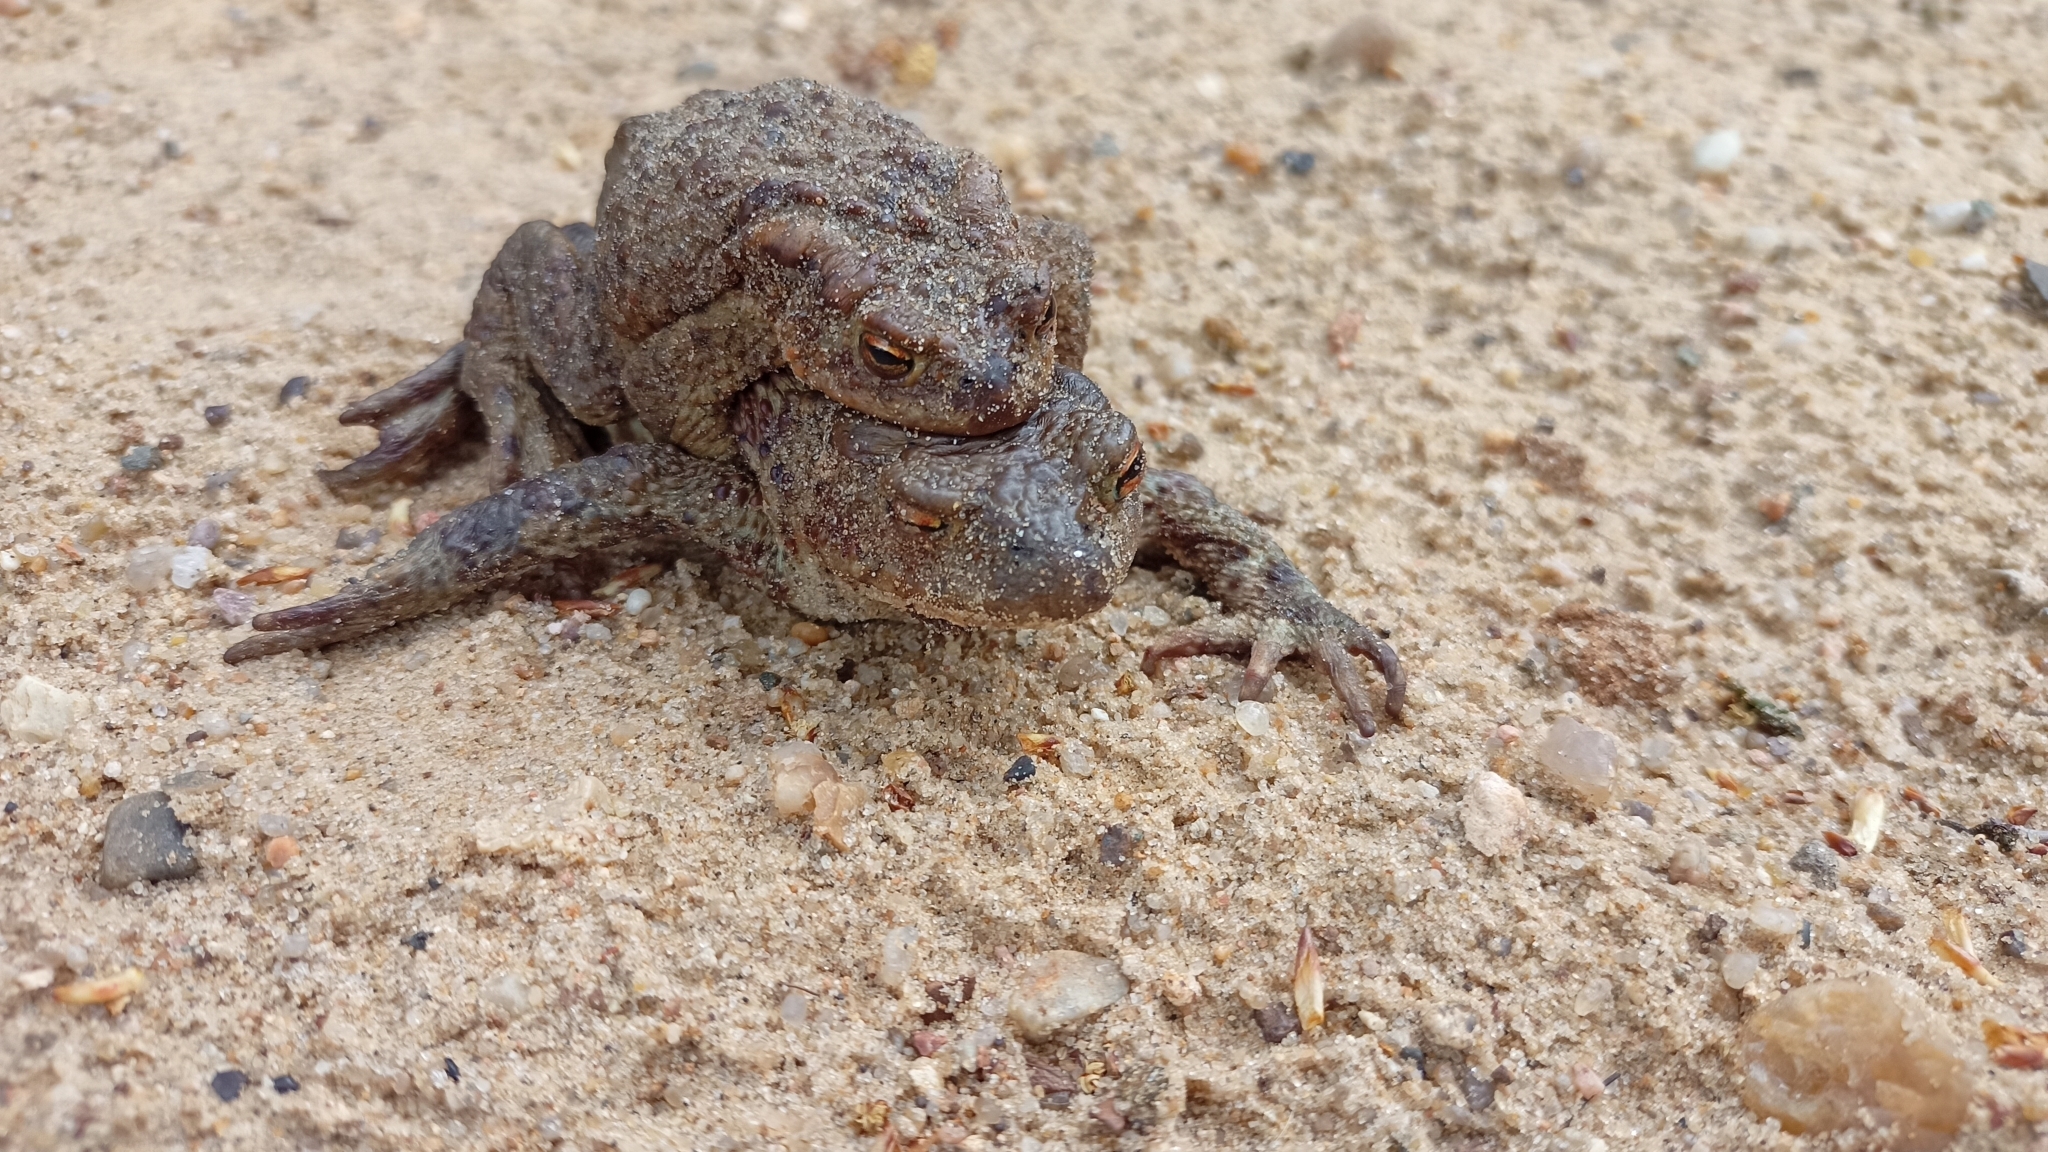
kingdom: Animalia
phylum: Chordata
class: Amphibia
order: Anura
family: Bufonidae
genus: Bufo
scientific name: Bufo bufo
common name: Common toad
